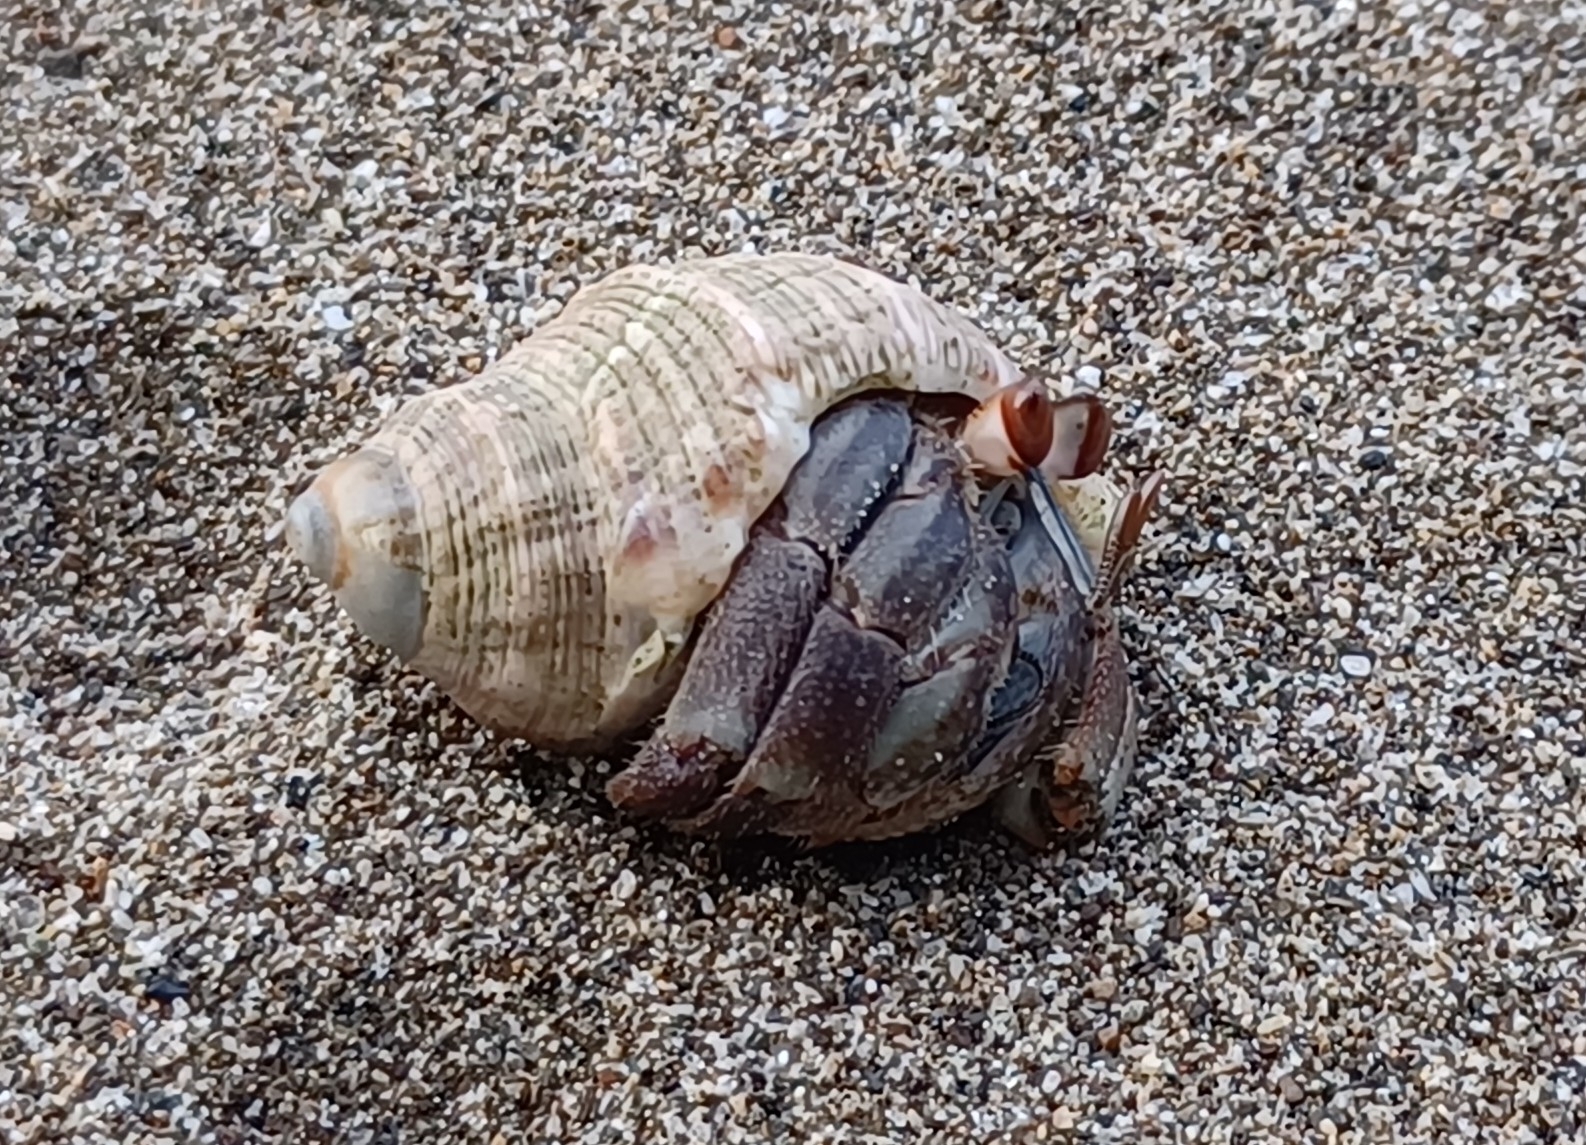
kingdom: Animalia
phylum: Arthropoda
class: Malacostraca
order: Decapoda
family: Coenobitidae
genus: Coenobita
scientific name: Coenobita compressus
